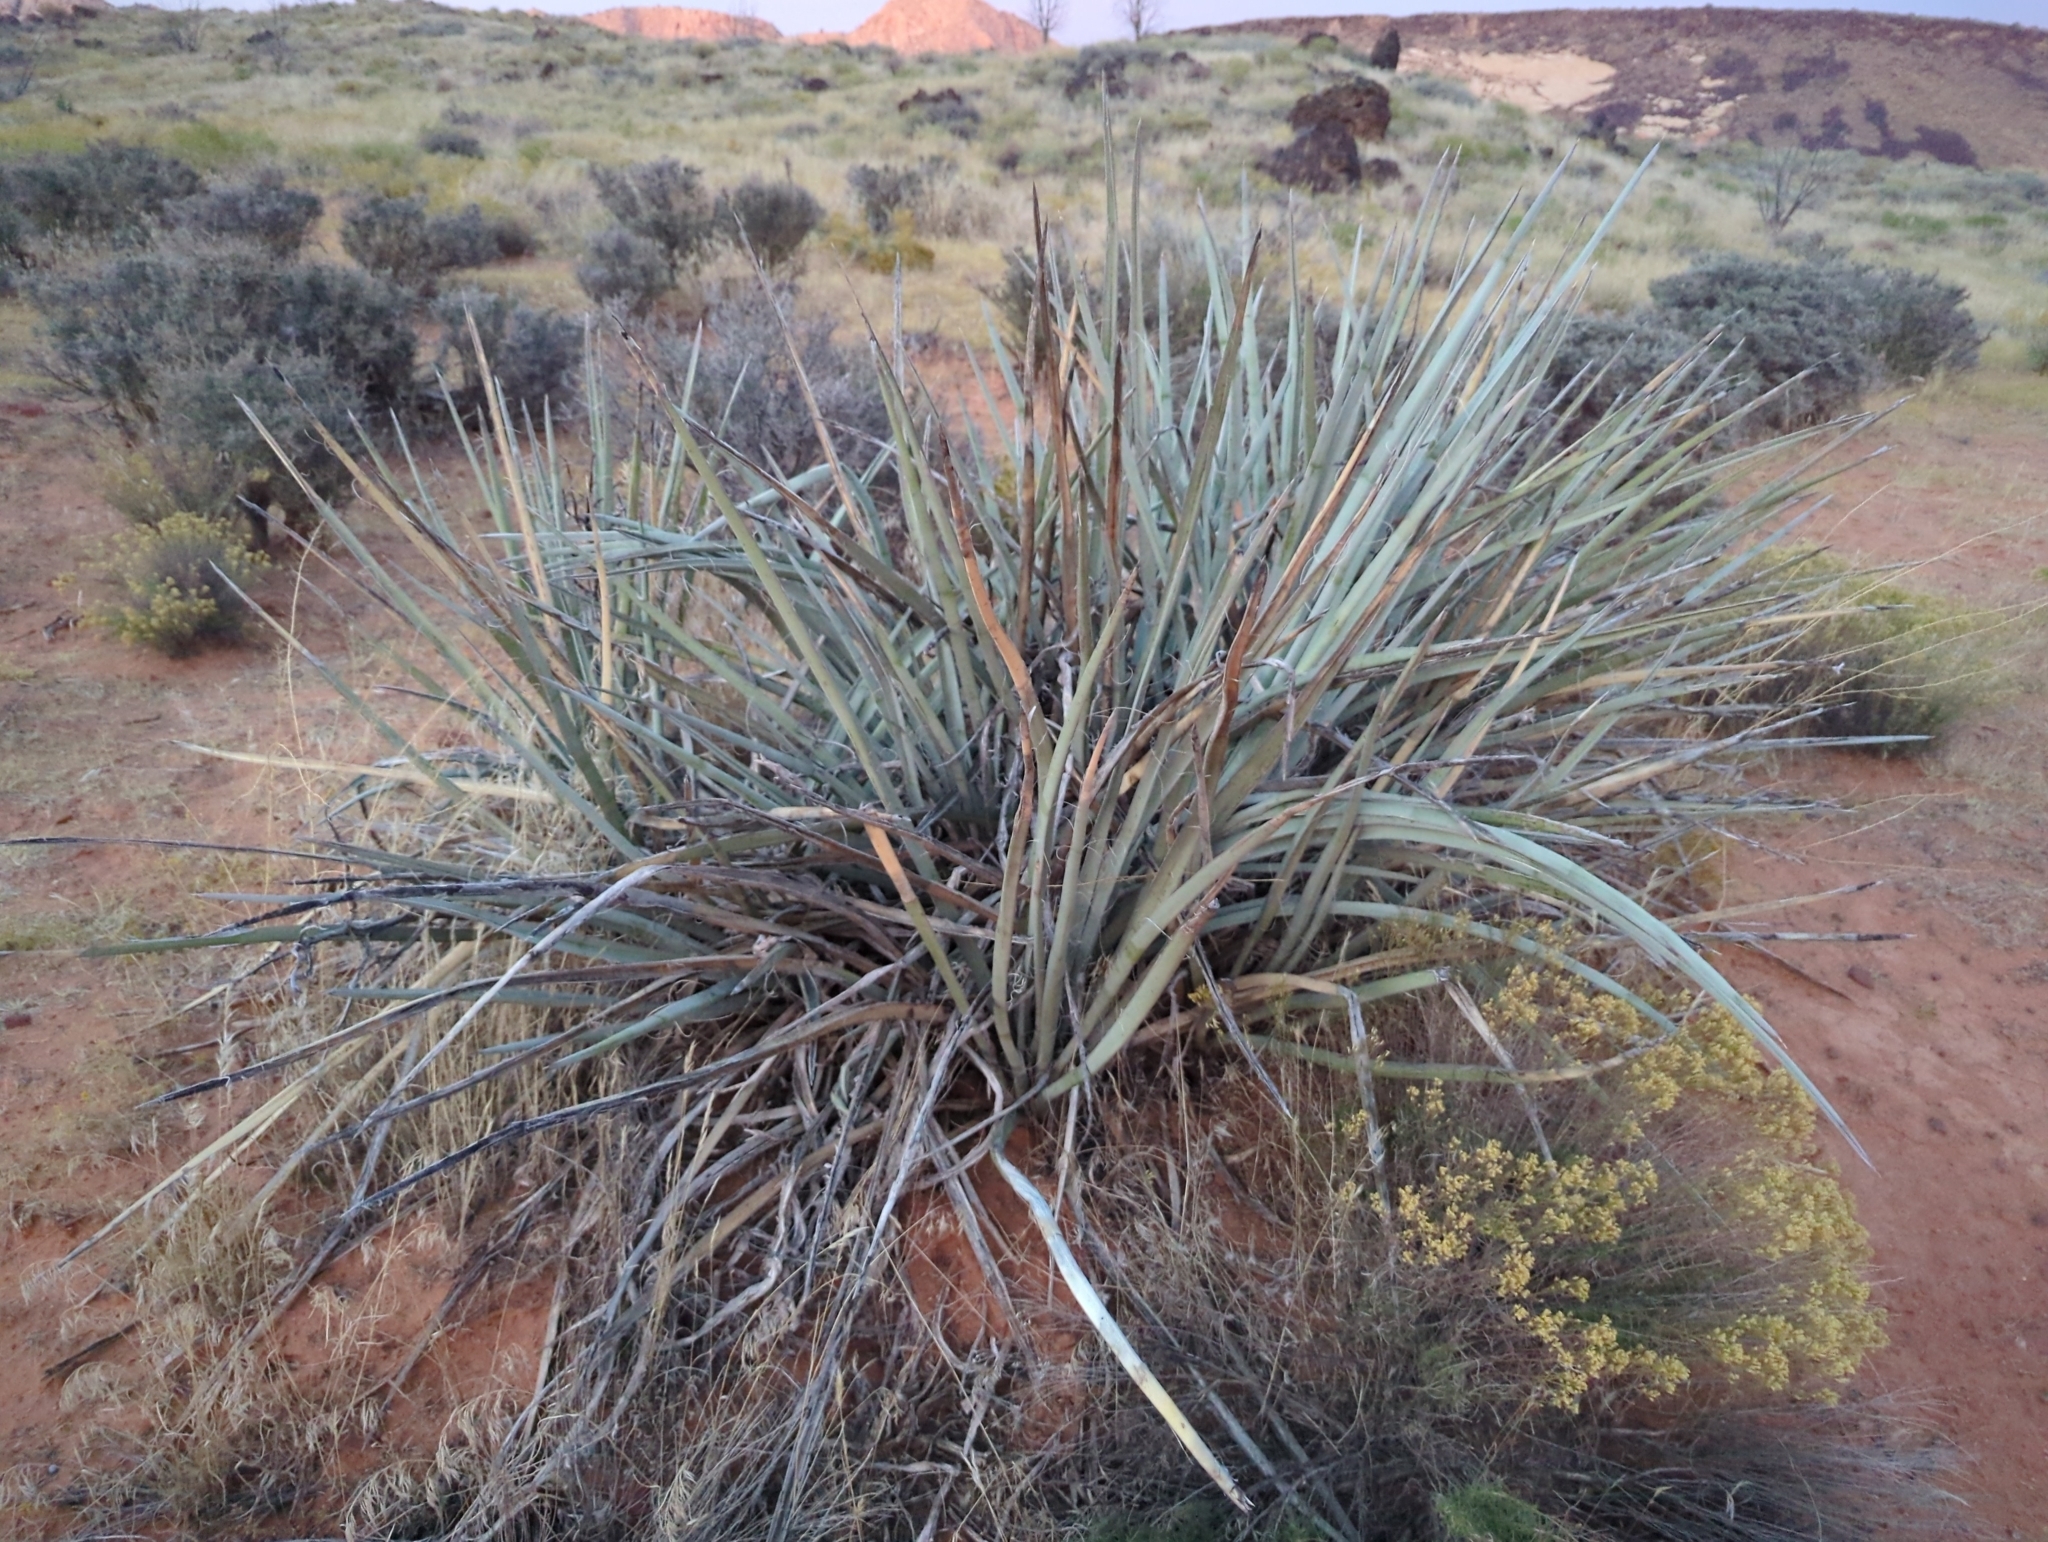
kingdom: Plantae
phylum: Tracheophyta
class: Liliopsida
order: Asparagales
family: Asparagaceae
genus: Yucca
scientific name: Yucca baccata
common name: Banana yucca
